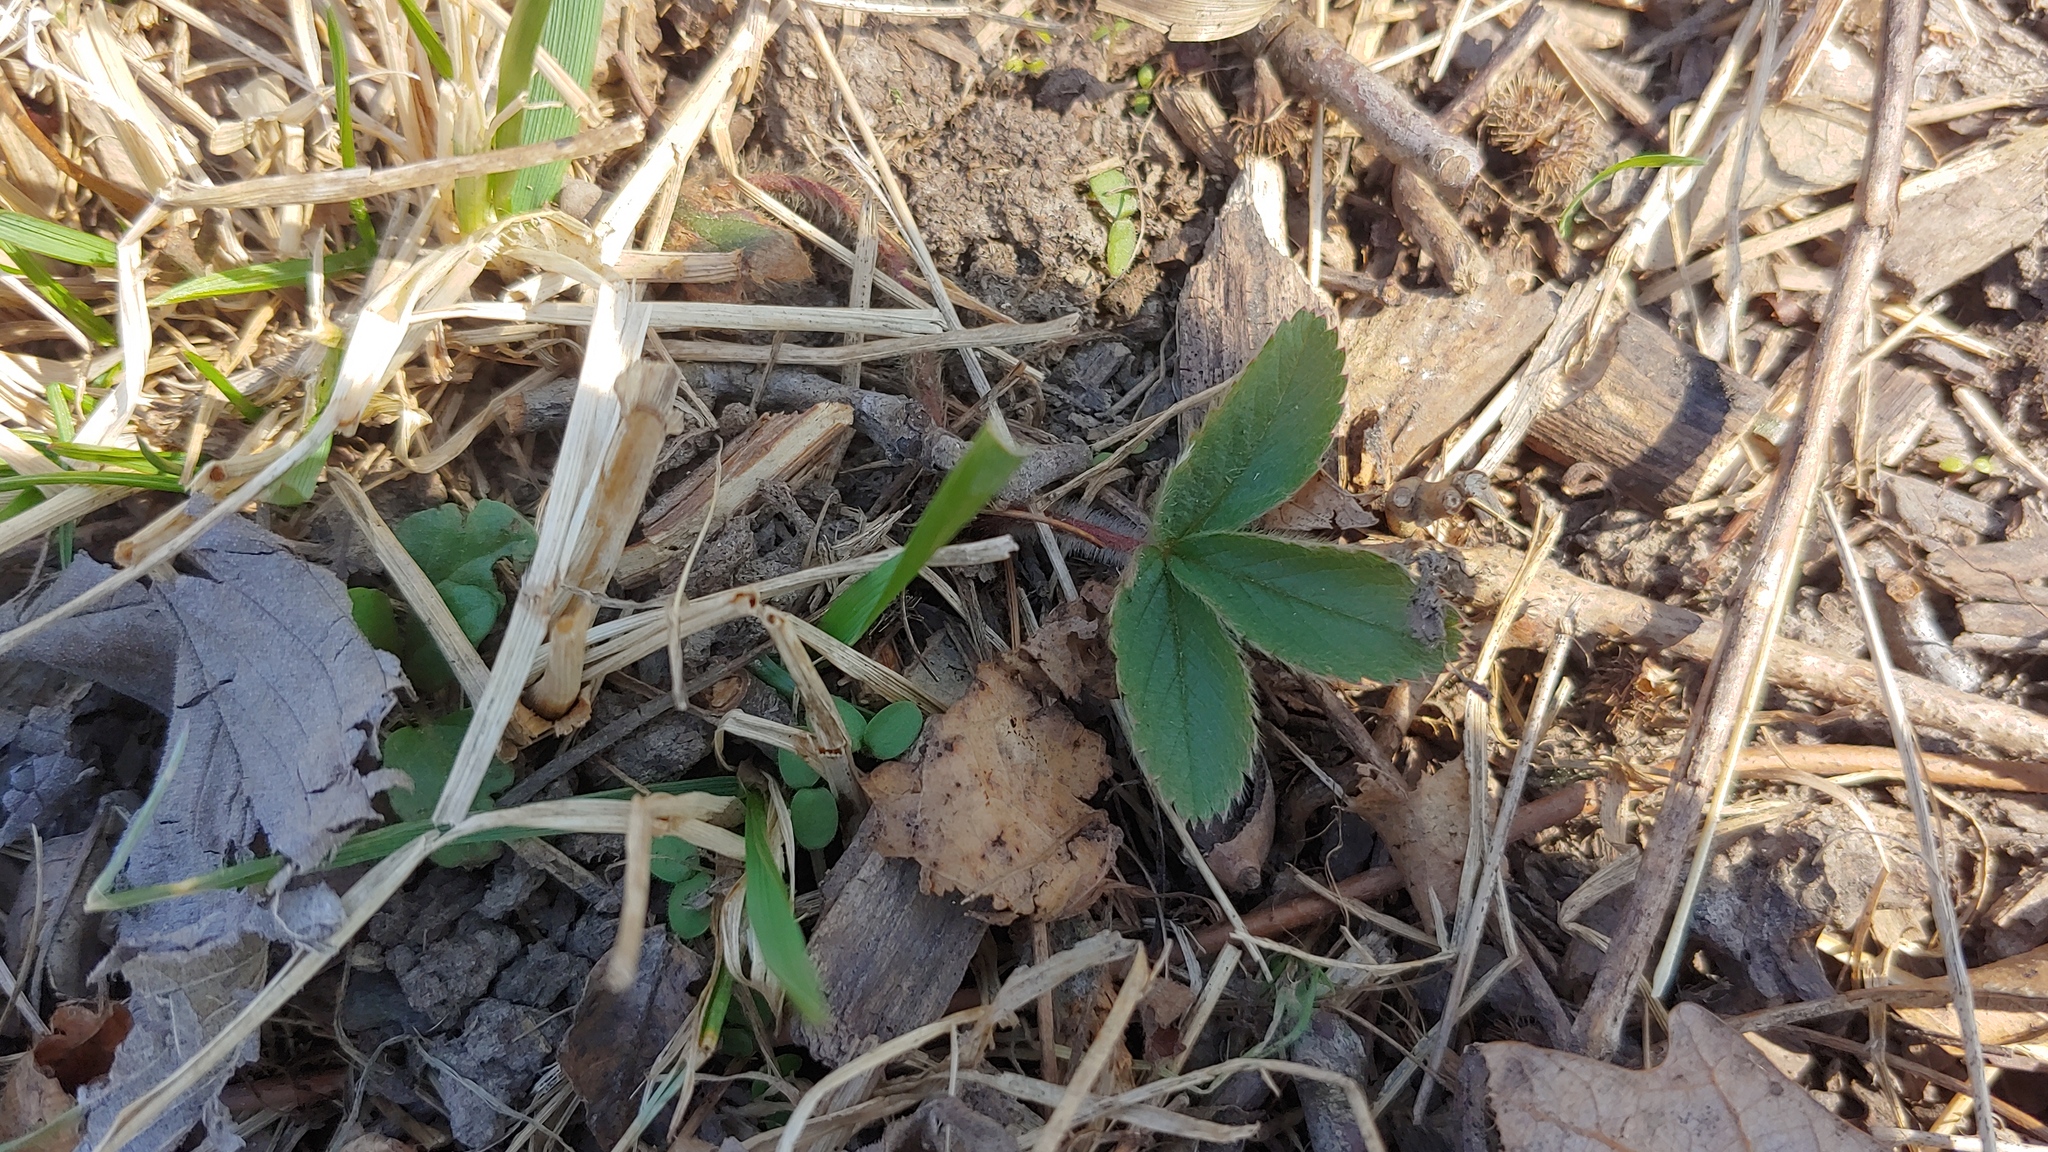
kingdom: Plantae
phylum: Tracheophyta
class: Magnoliopsida
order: Rosales
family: Rosaceae
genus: Fragaria
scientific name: Fragaria virginiana
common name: Thickleaved wild strawberry
